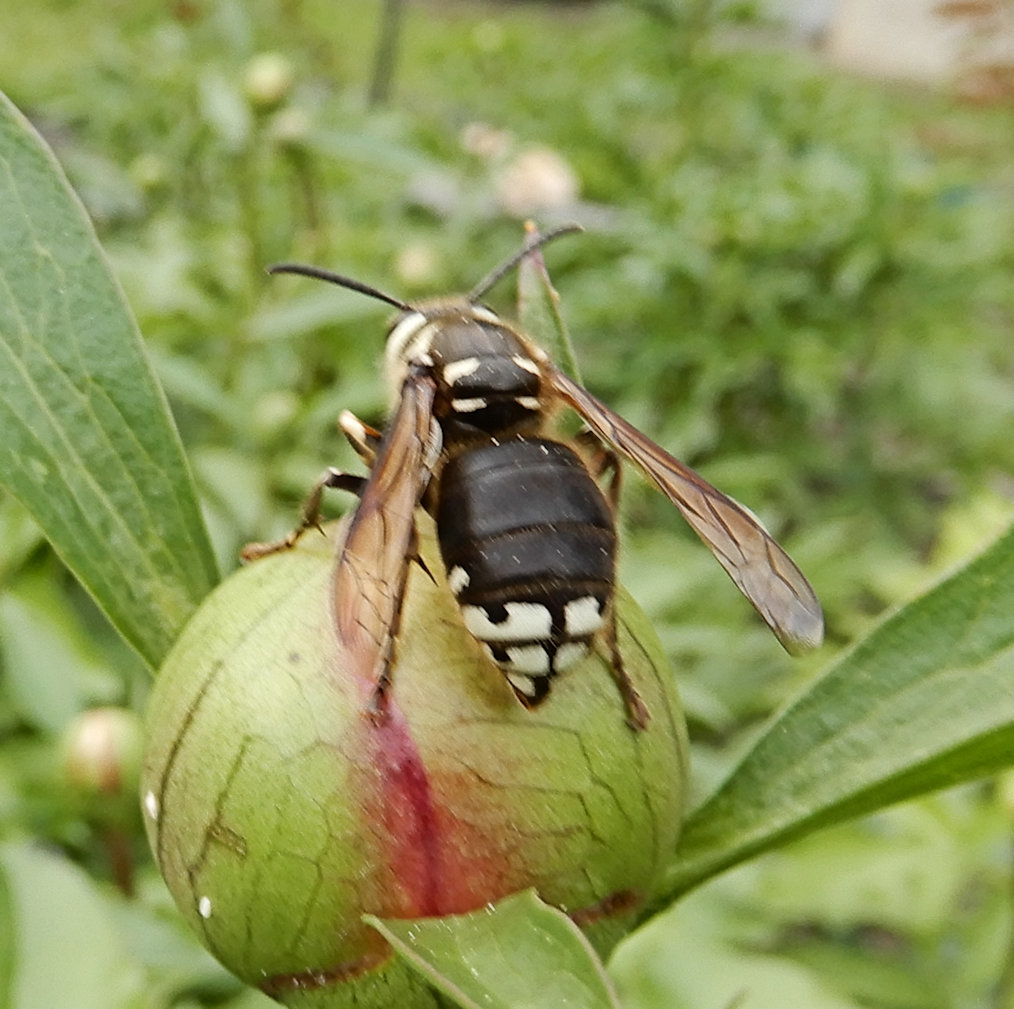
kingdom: Animalia
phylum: Arthropoda
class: Insecta
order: Hymenoptera
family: Vespidae
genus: Dolichovespula
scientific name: Dolichovespula maculata
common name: Bald-faced hornet
